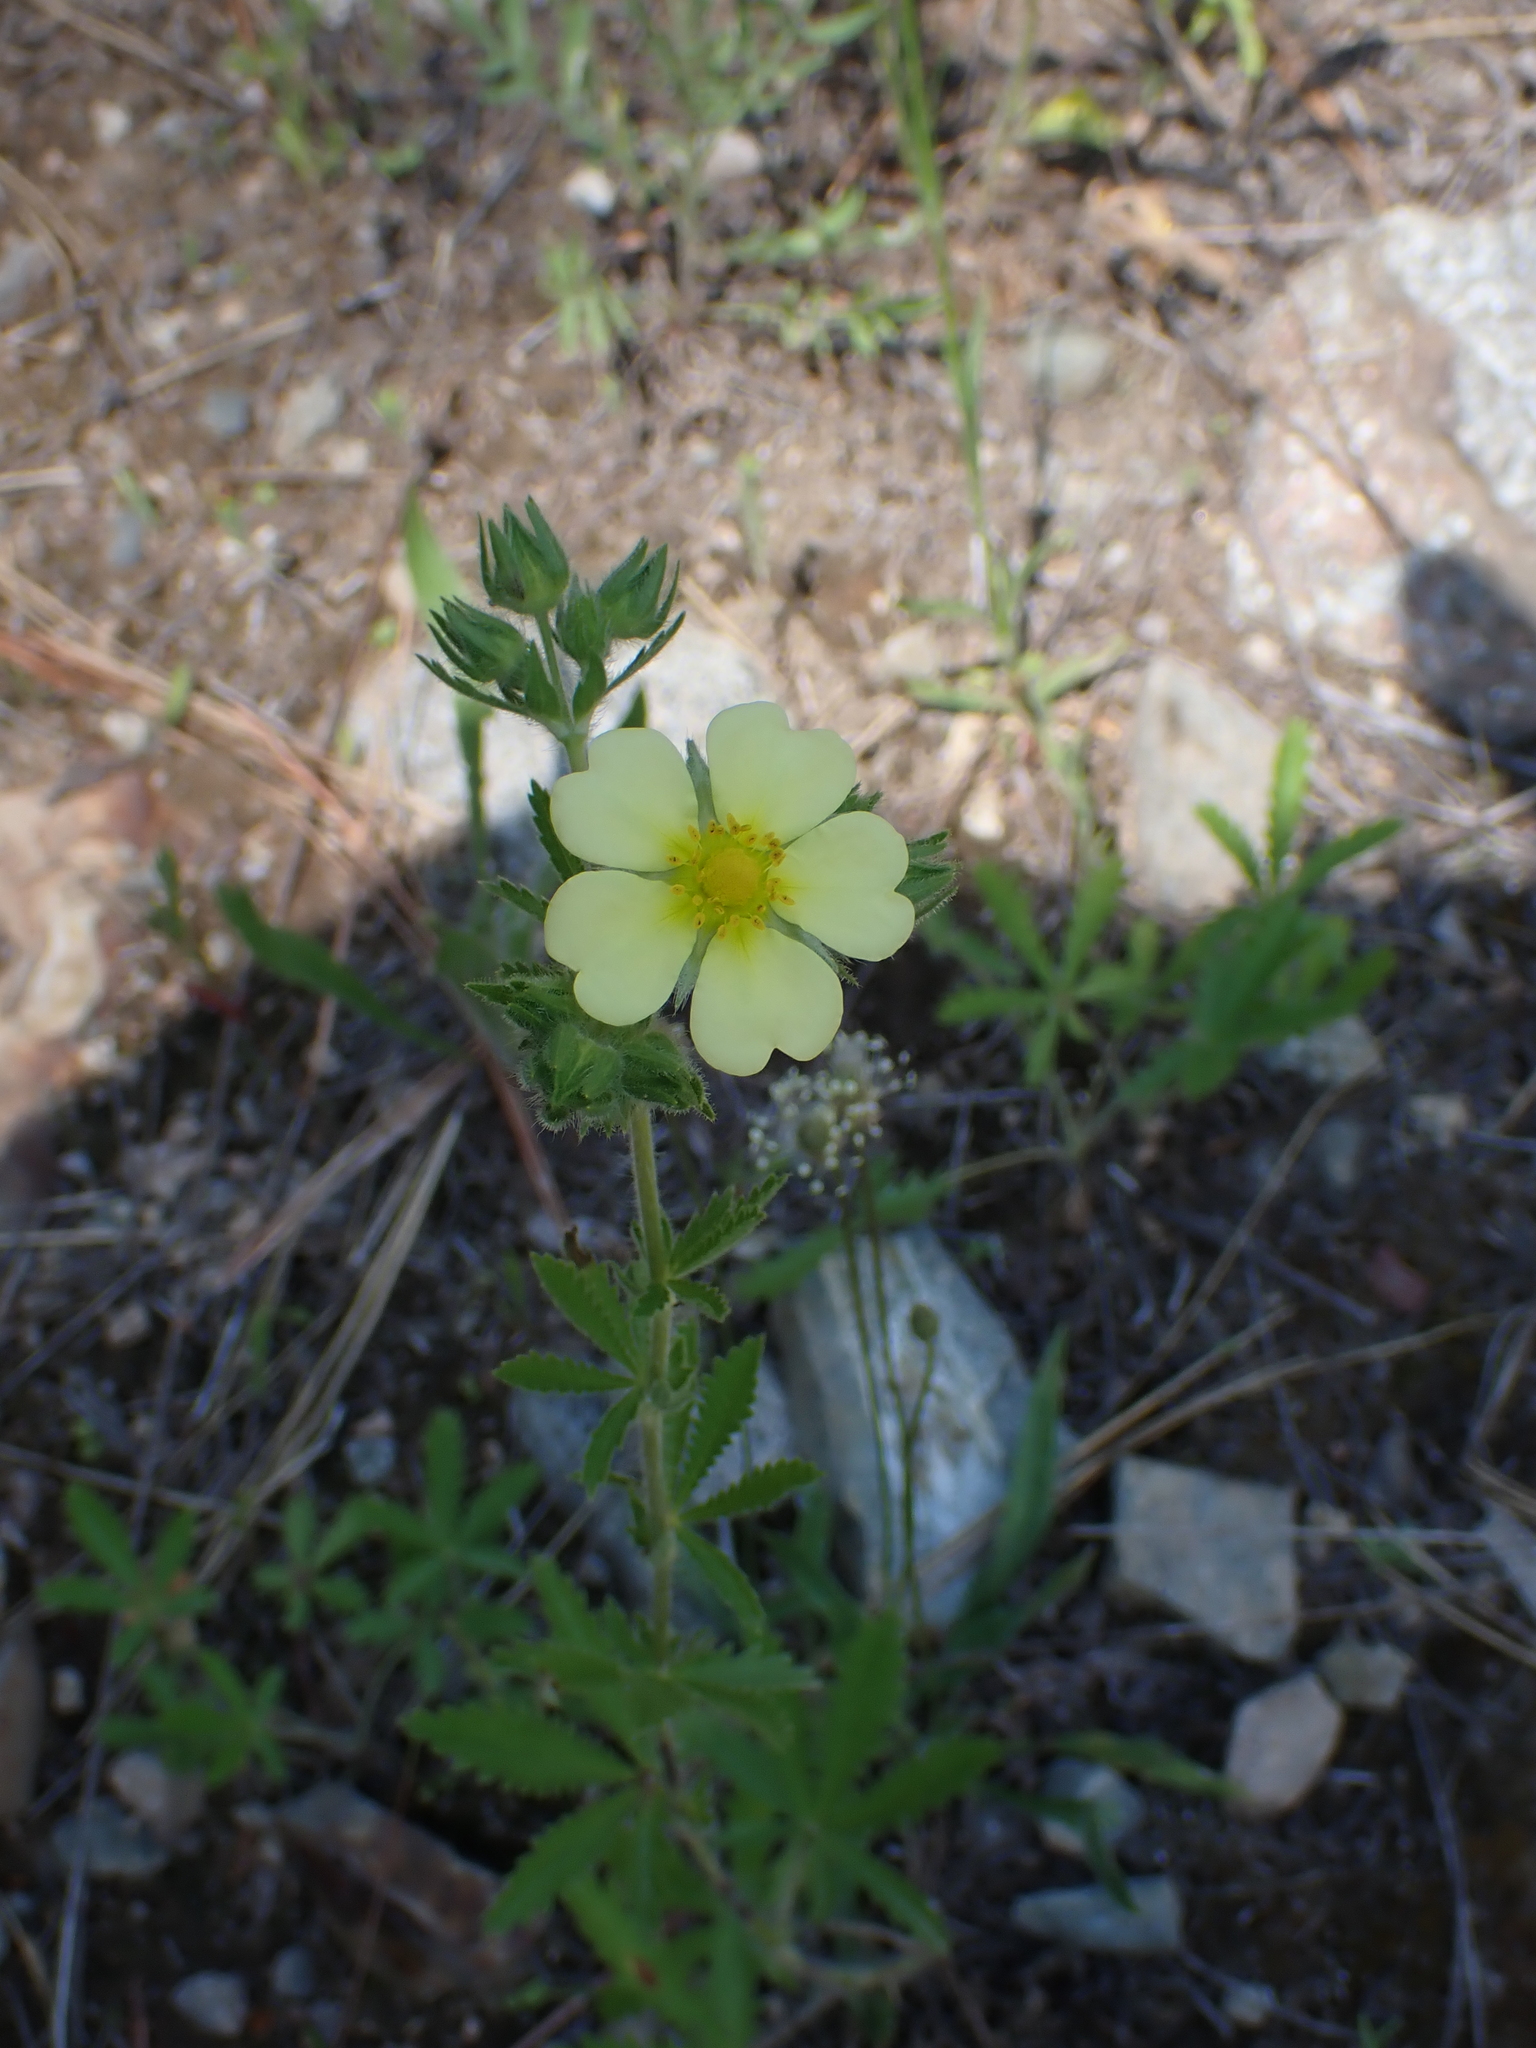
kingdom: Plantae
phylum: Tracheophyta
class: Magnoliopsida
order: Rosales
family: Rosaceae
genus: Potentilla
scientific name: Potentilla recta
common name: Sulphur cinquefoil
